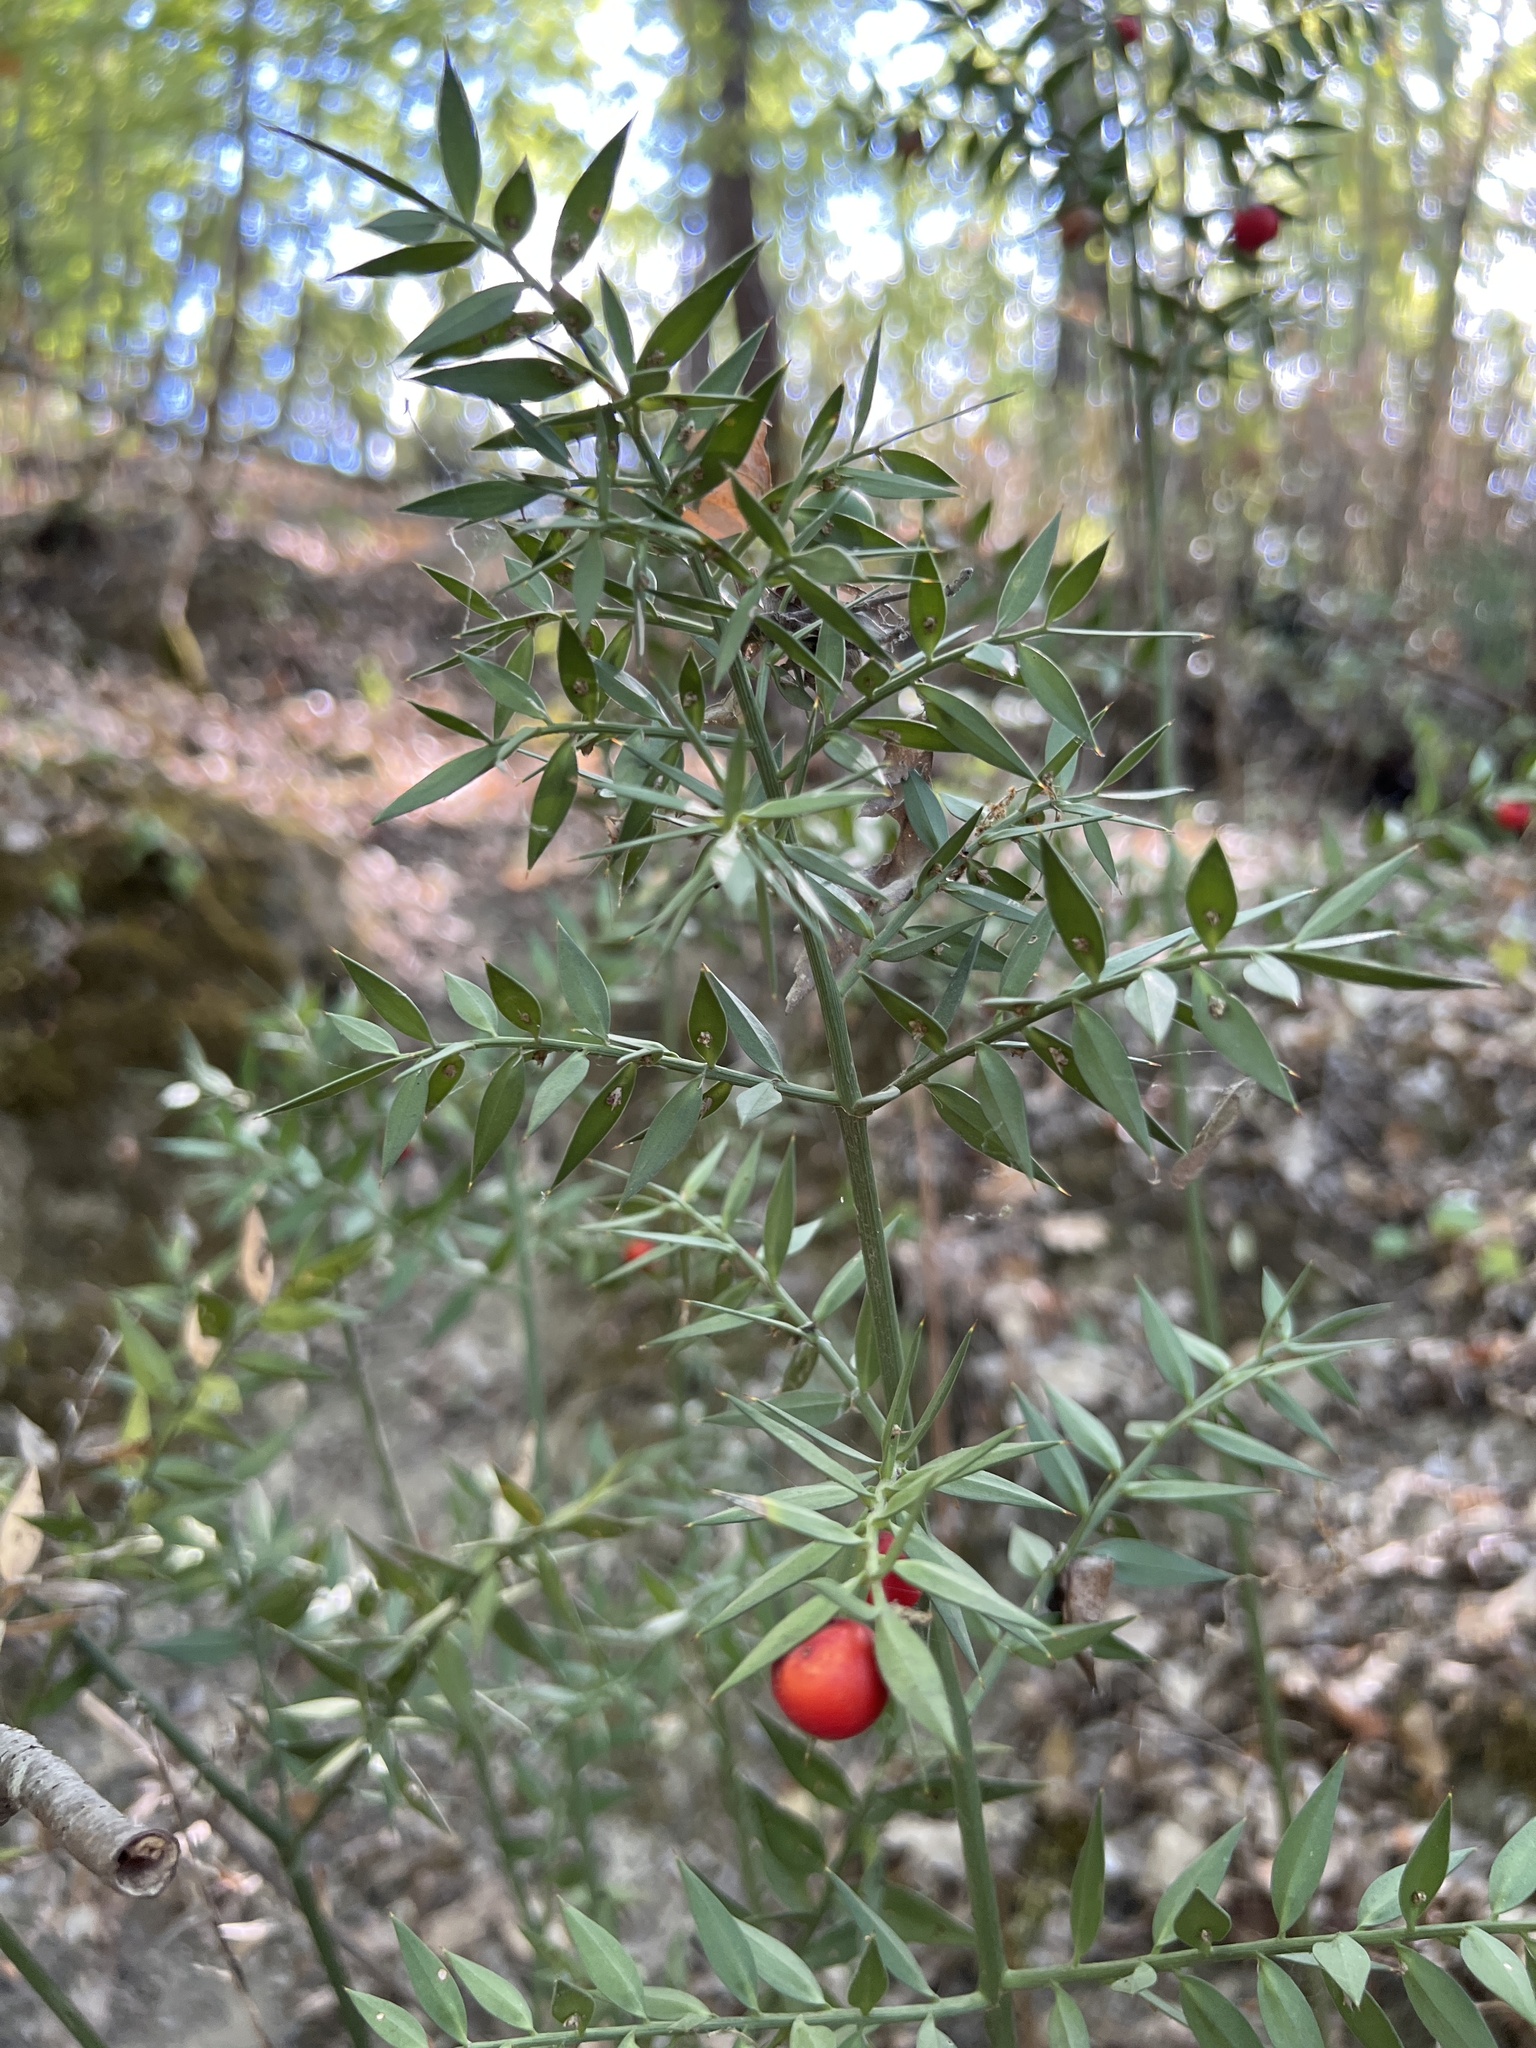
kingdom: Plantae
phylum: Tracheophyta
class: Liliopsida
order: Asparagales
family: Asparagaceae
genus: Ruscus
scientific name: Ruscus aculeatus
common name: Butcher's-broom
